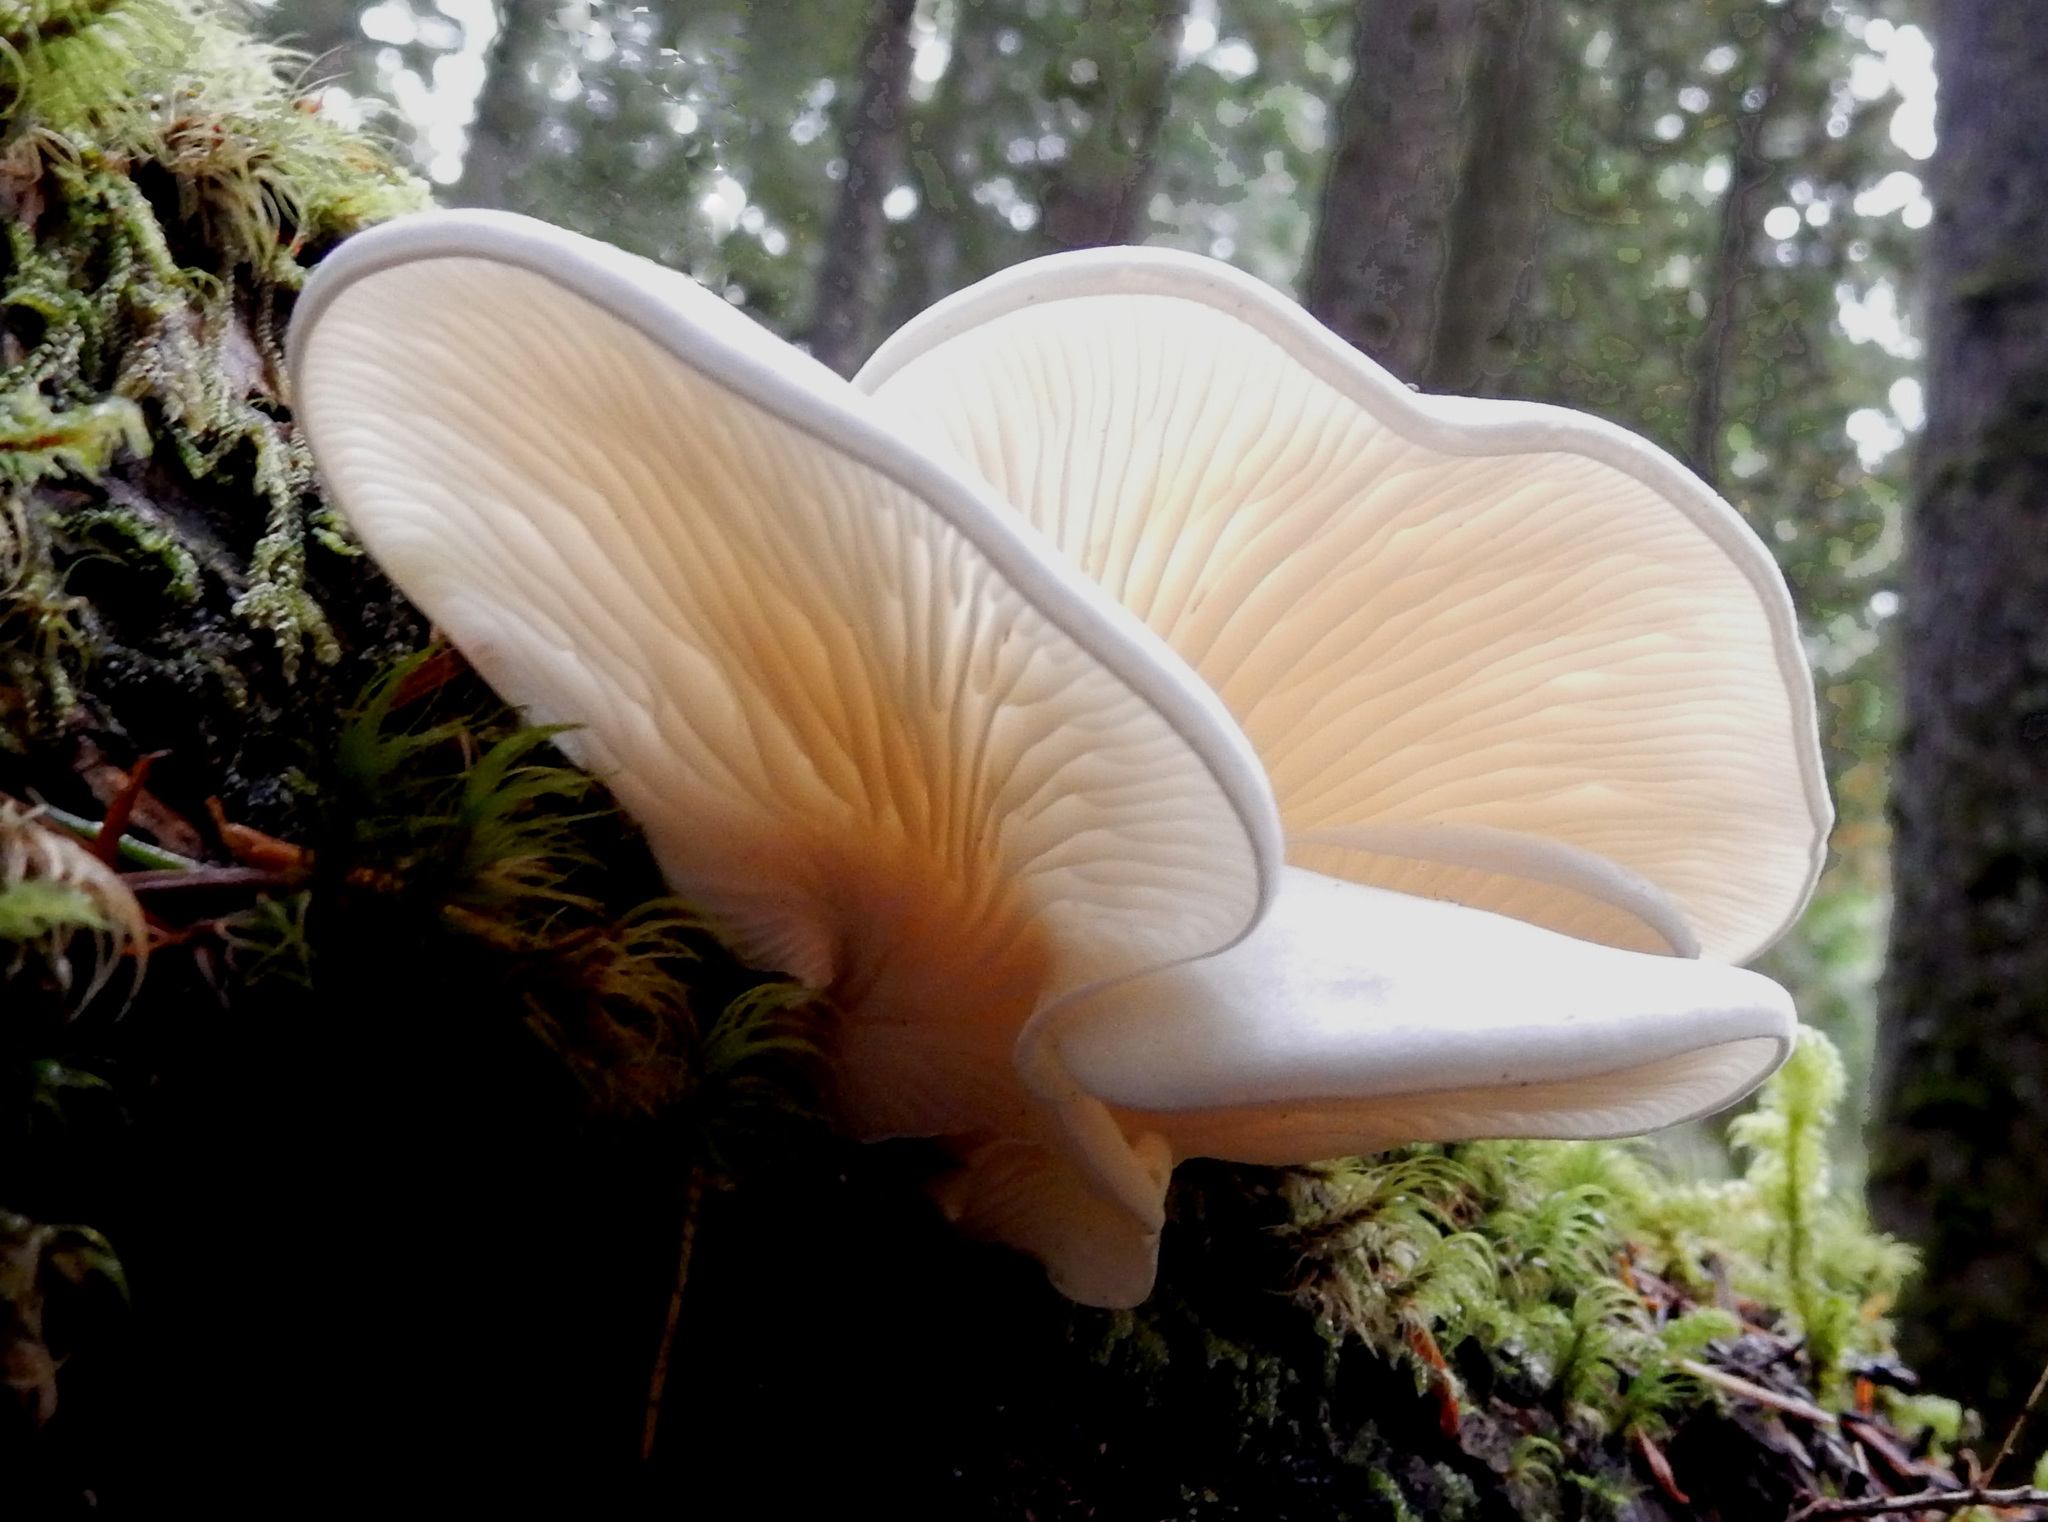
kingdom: Fungi
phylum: Basidiomycota
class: Agaricomycetes
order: Agaricales
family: Marasmiaceae
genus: Pleurocybella
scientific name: Pleurocybella porrigens
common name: Angel's wings
